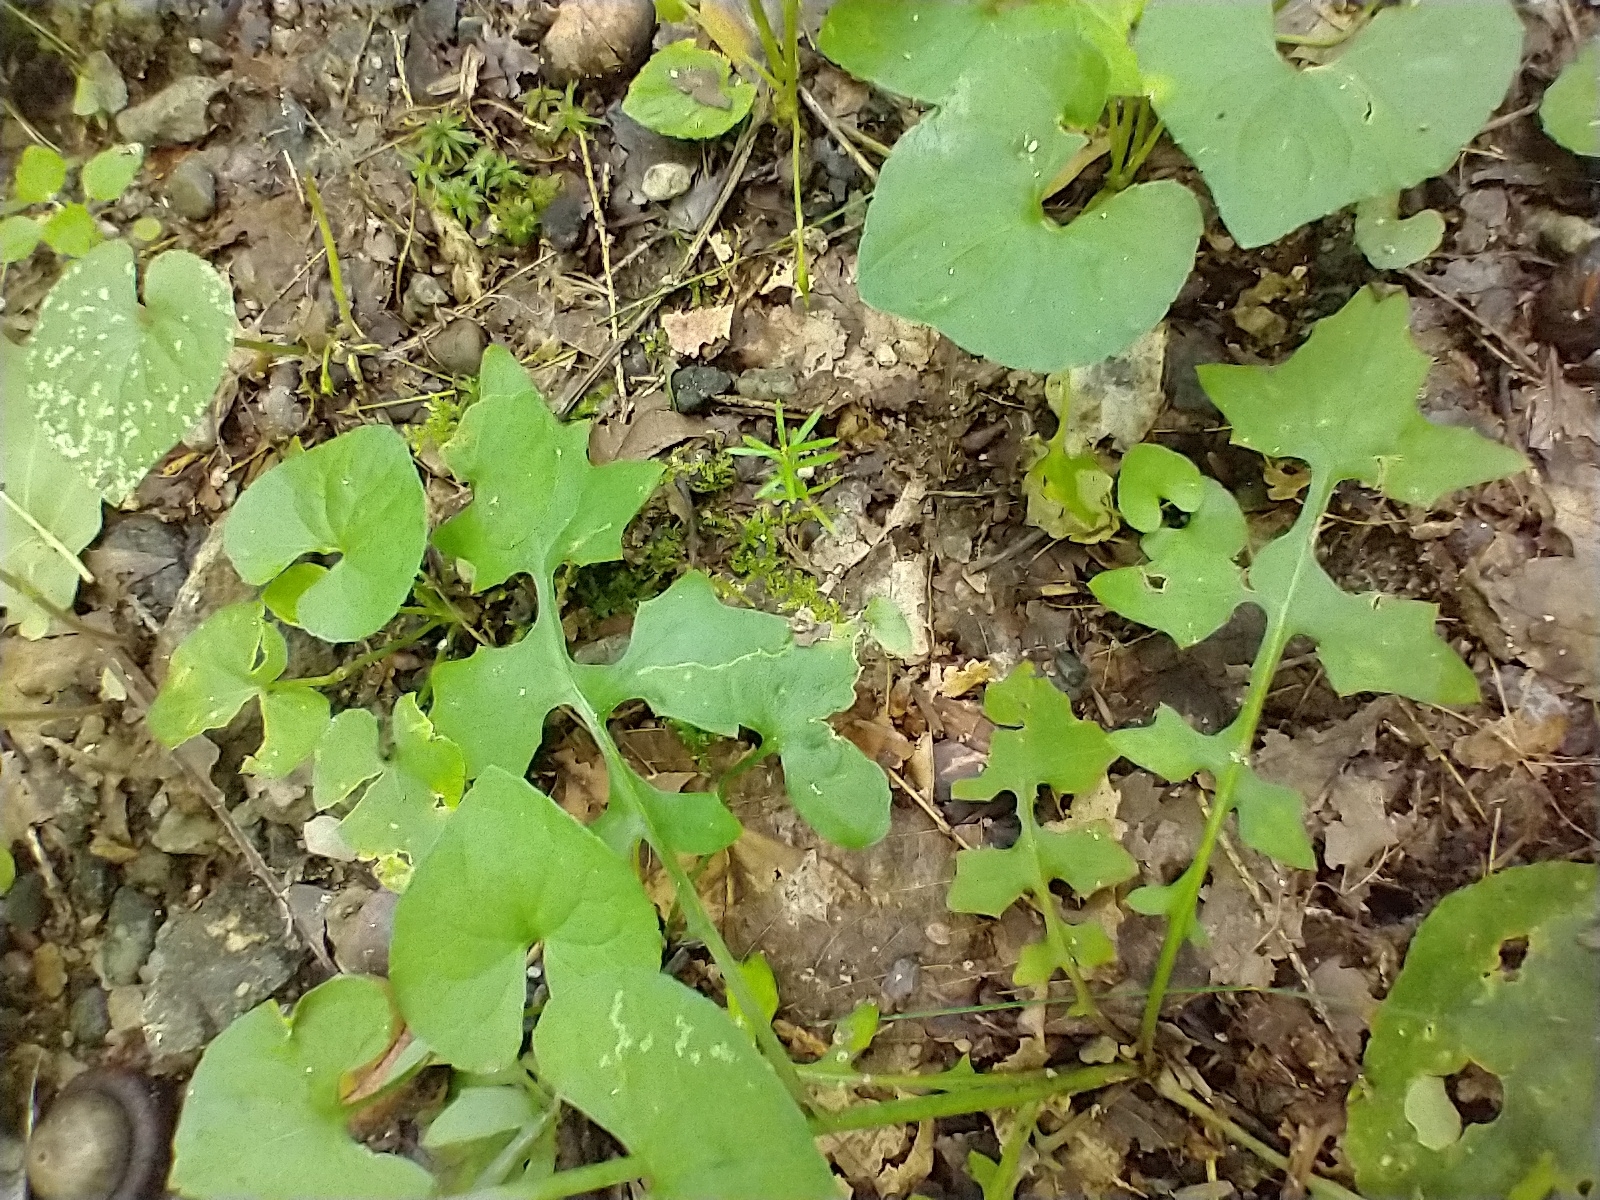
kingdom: Plantae
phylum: Tracheophyta
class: Magnoliopsida
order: Asterales
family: Asteraceae
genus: Mycelis
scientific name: Mycelis muralis
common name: Wall lettuce
